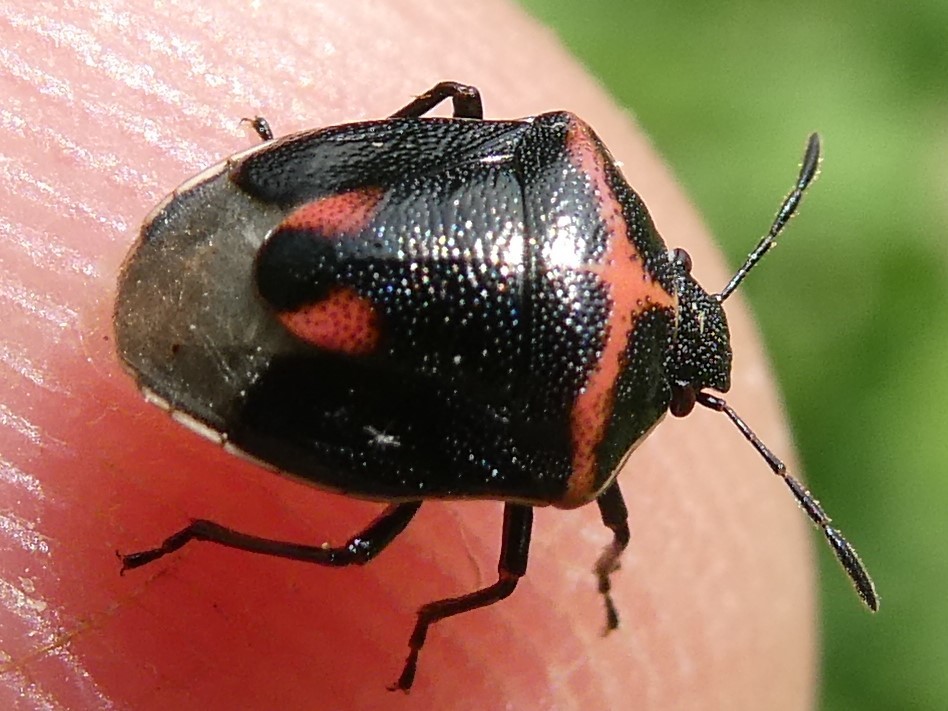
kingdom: Animalia
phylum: Arthropoda
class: Insecta
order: Hemiptera
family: Pentatomidae
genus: Cosmopepla
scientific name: Cosmopepla lintneriana
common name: Twice-stabbed stink bug
